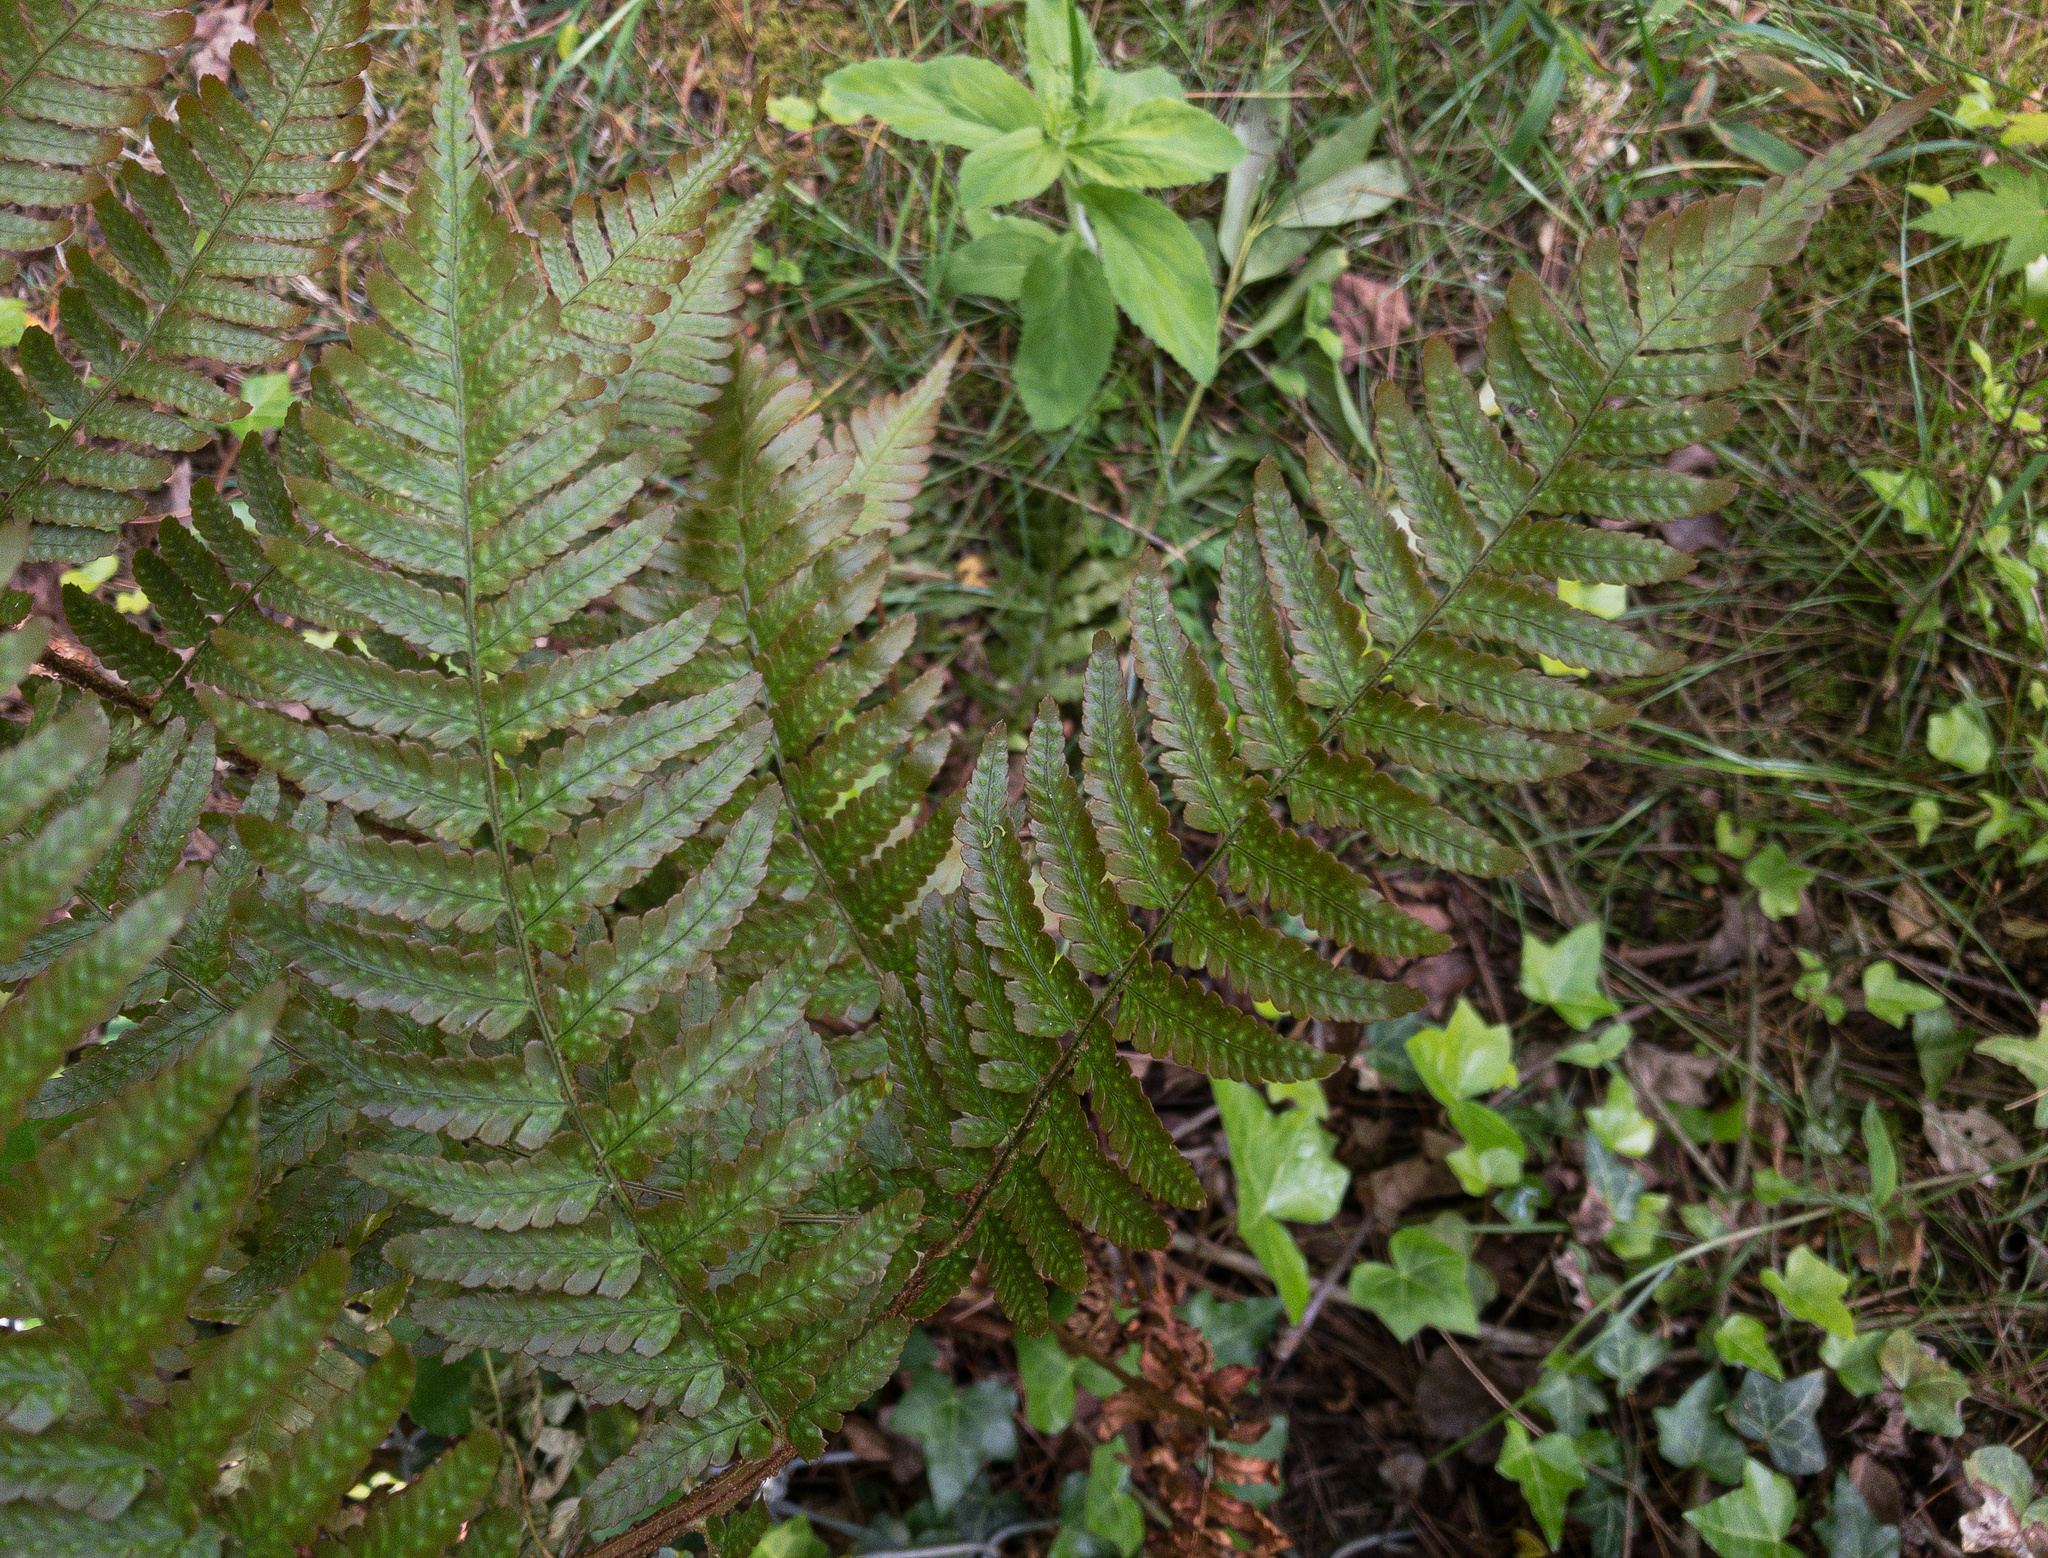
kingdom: Plantae
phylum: Tracheophyta
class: Polypodiopsida
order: Polypodiales
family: Dryopteridaceae
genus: Dryopteris
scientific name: Dryopteris erythrosora
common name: Autumn fern
